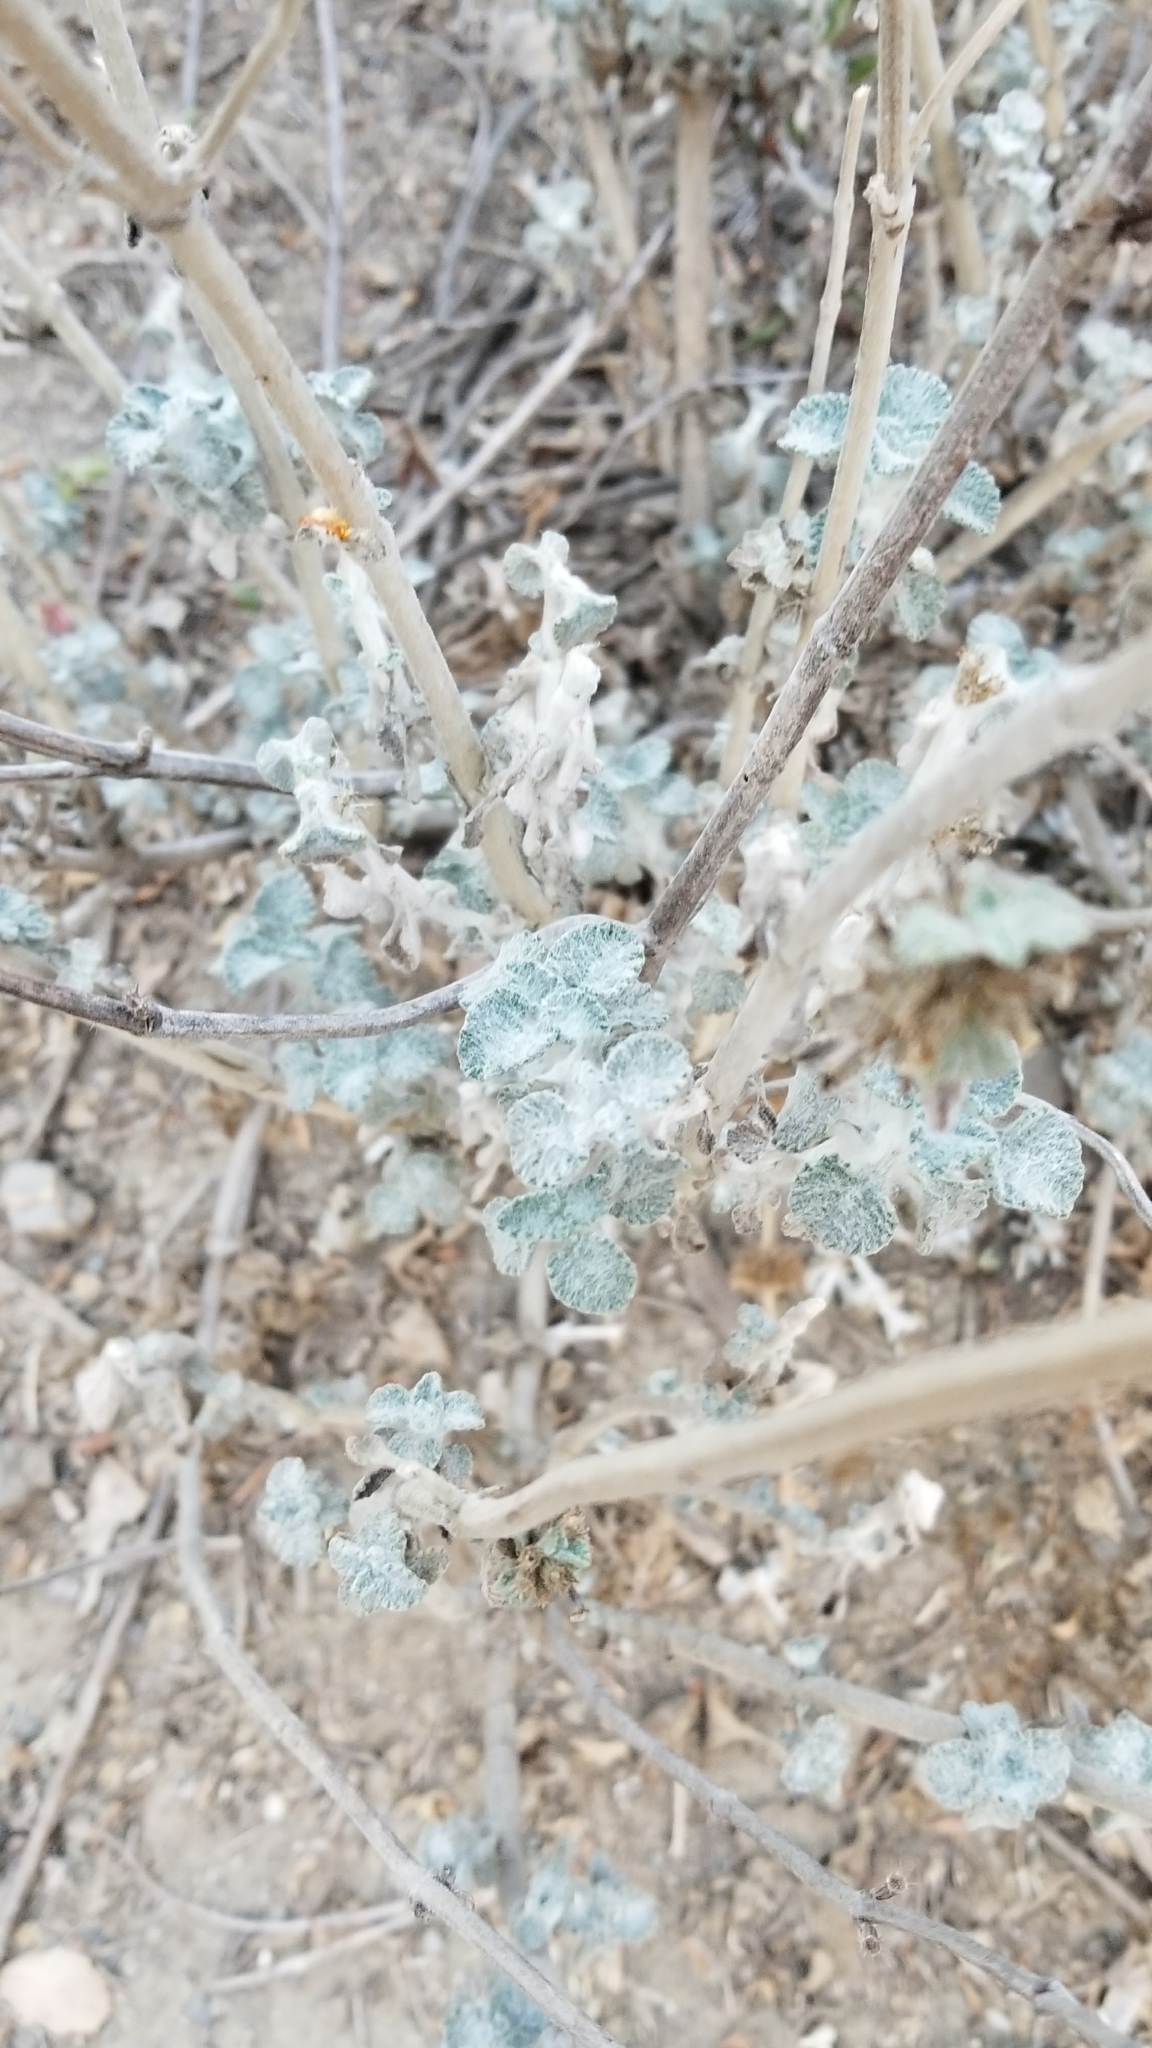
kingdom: Plantae
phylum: Tracheophyta
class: Magnoliopsida
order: Lamiales
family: Lamiaceae
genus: Marrubium
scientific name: Marrubium vulgare
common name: Horehound
